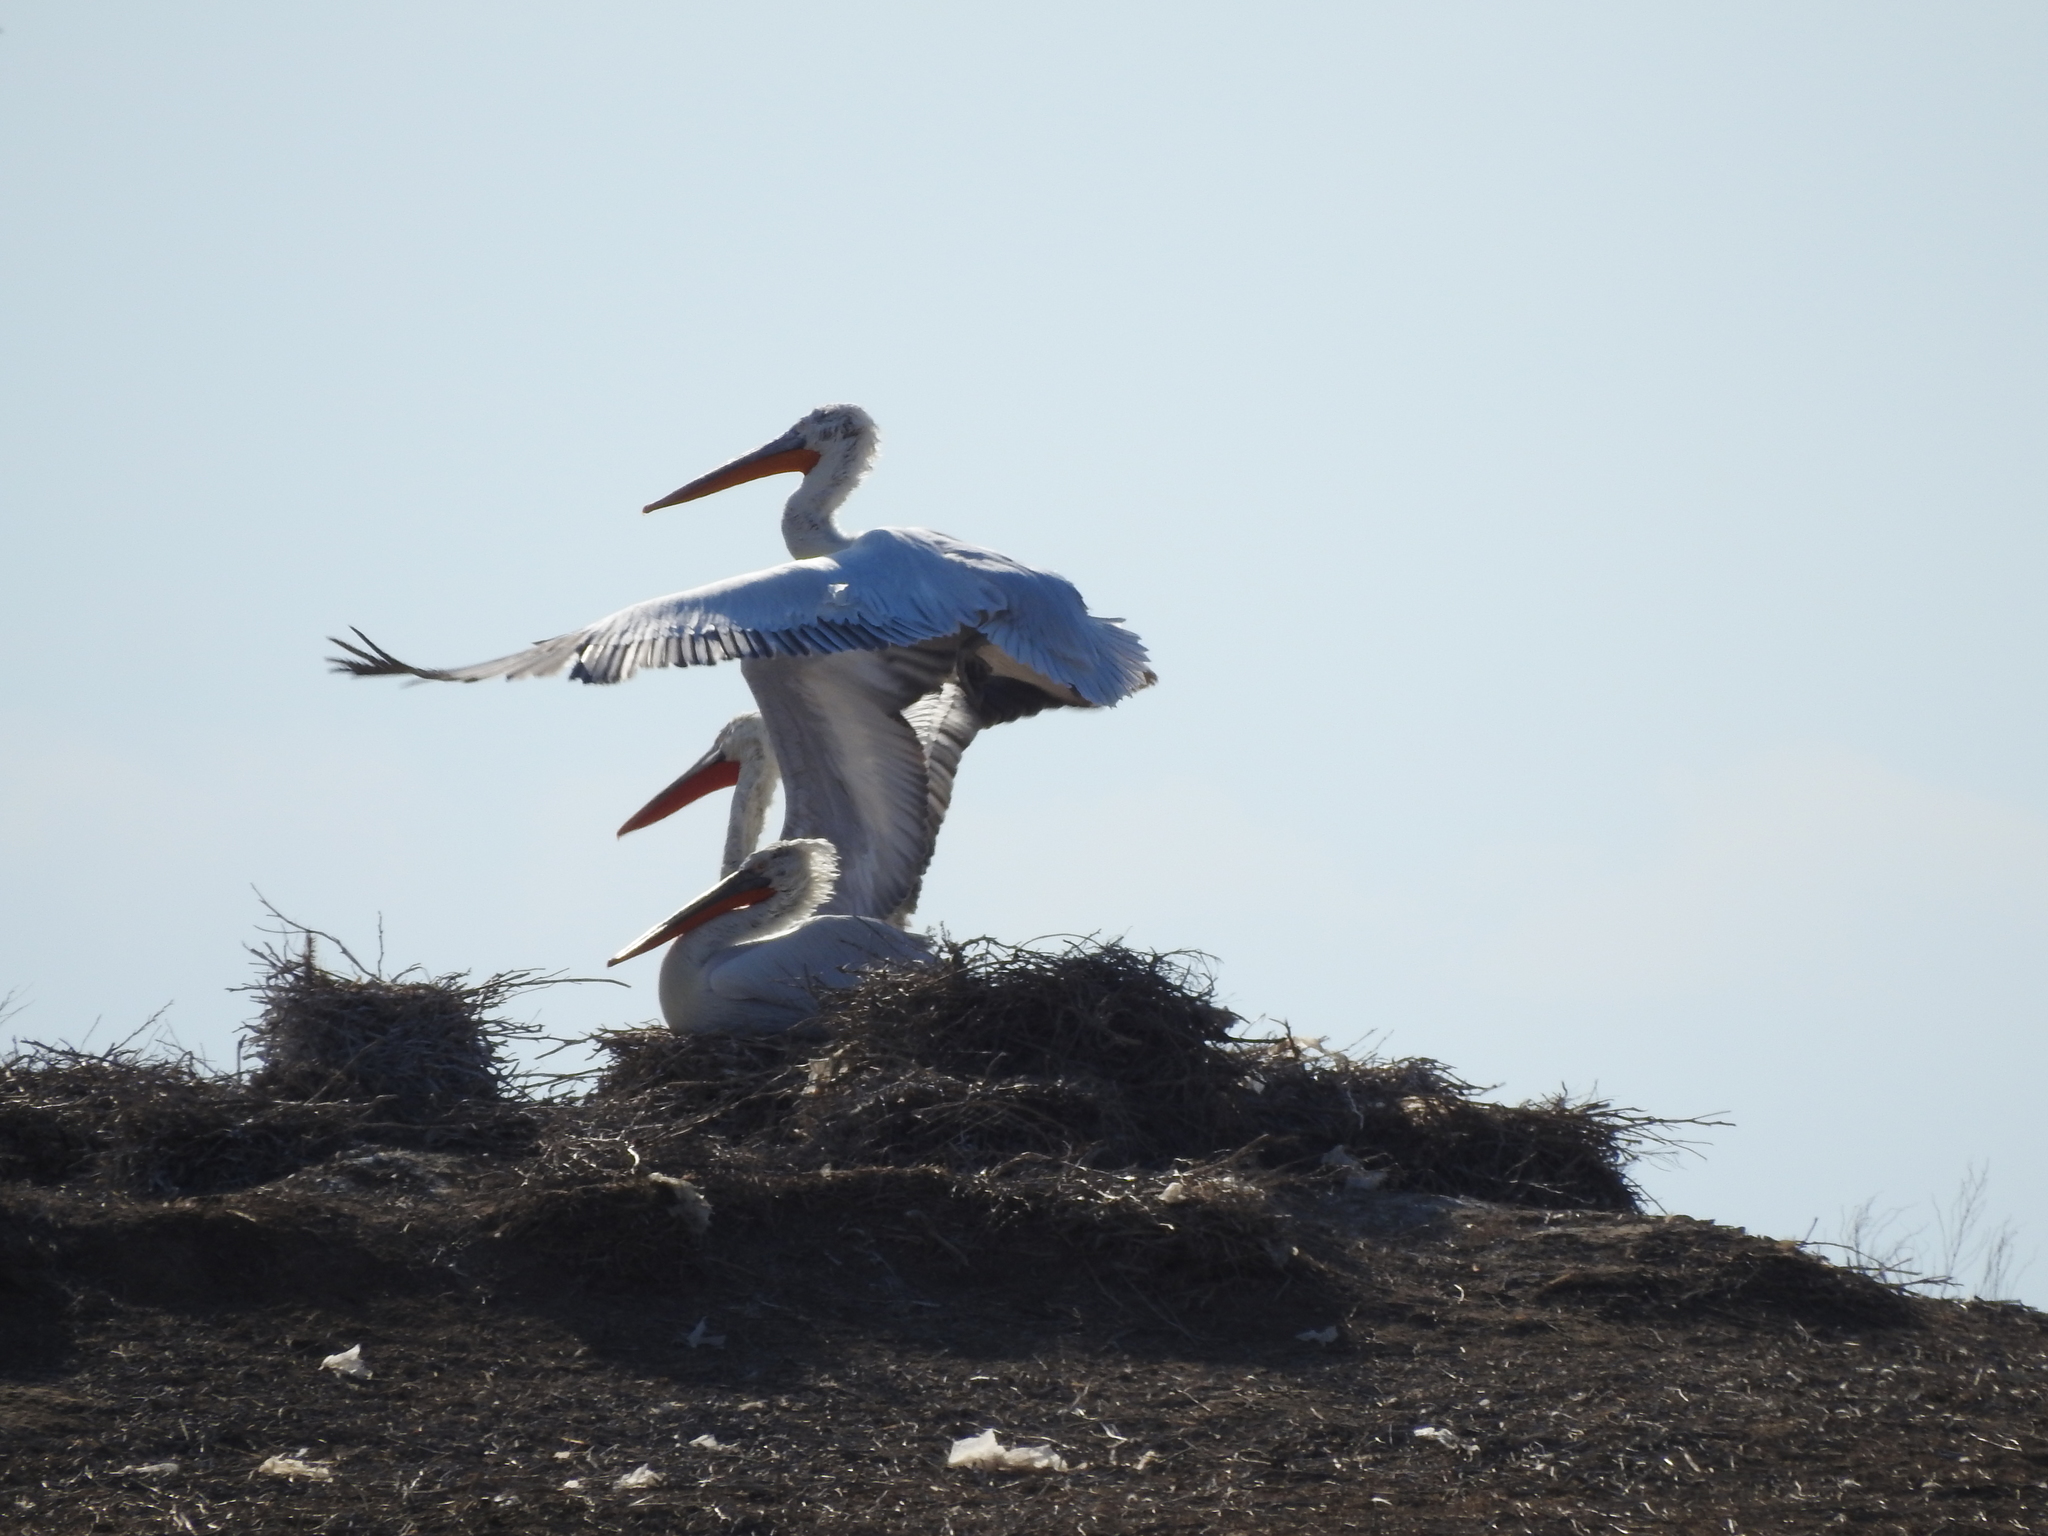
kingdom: Animalia
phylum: Chordata
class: Aves
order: Pelecaniformes
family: Pelecanidae
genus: Pelecanus
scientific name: Pelecanus crispus
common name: Dalmatian pelican
